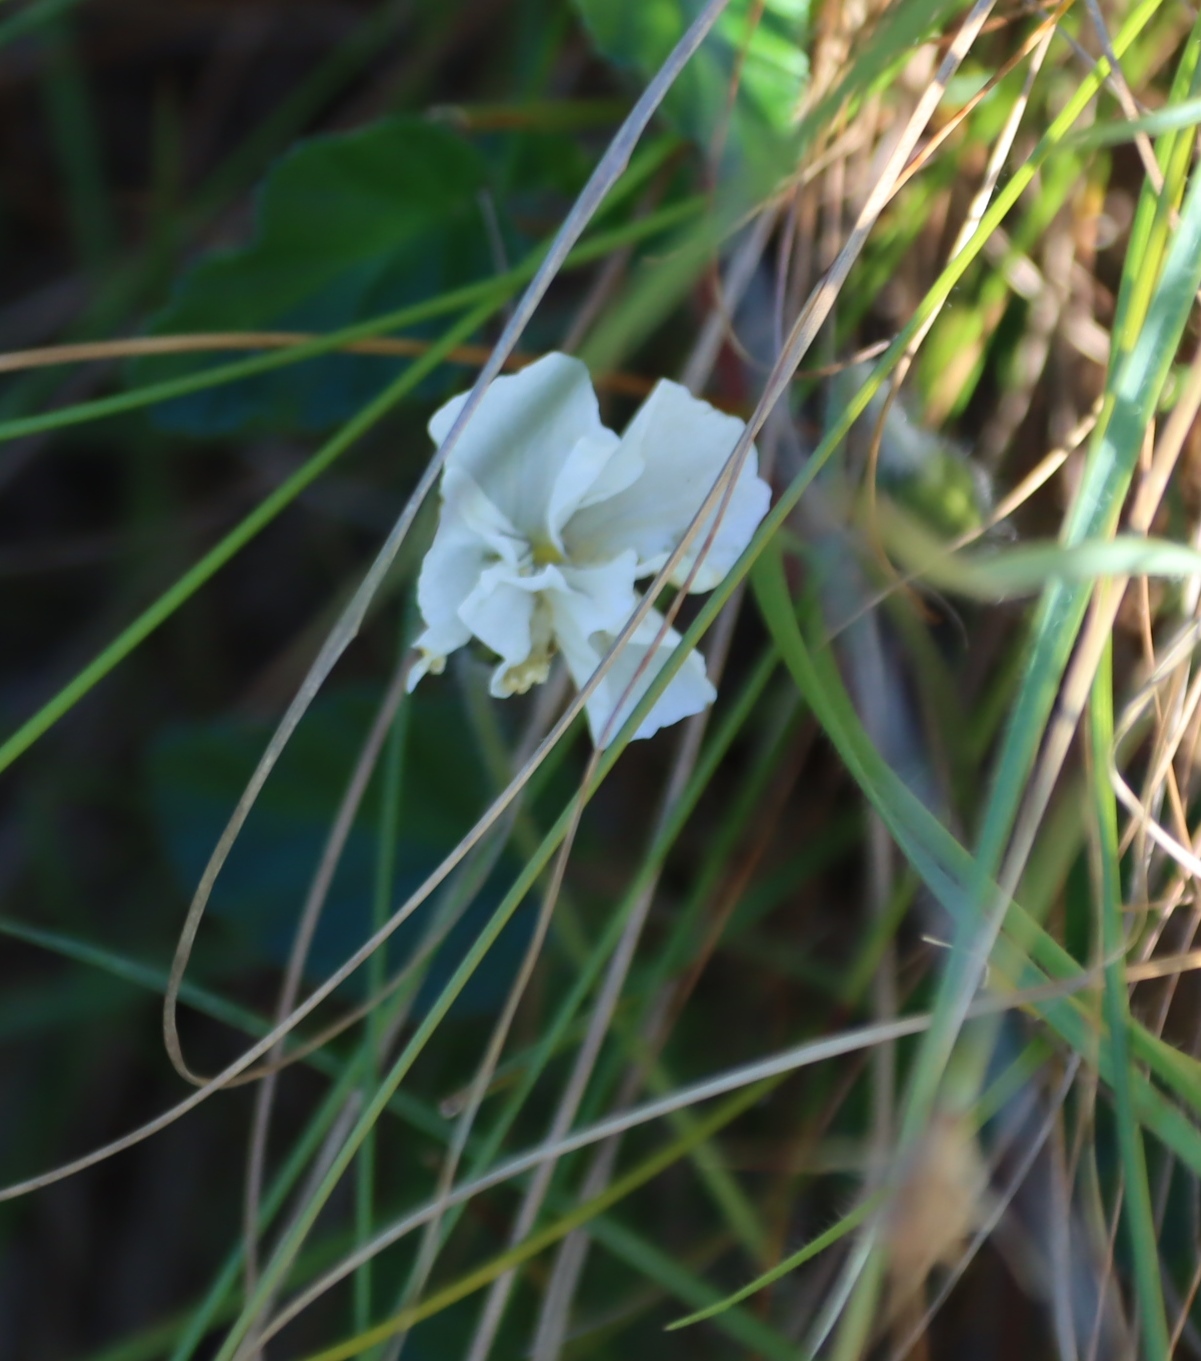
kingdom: Plantae
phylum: Tracheophyta
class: Magnoliopsida
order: Geraniales
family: Geraniaceae
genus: Monsonia
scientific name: Monsonia emarginata
